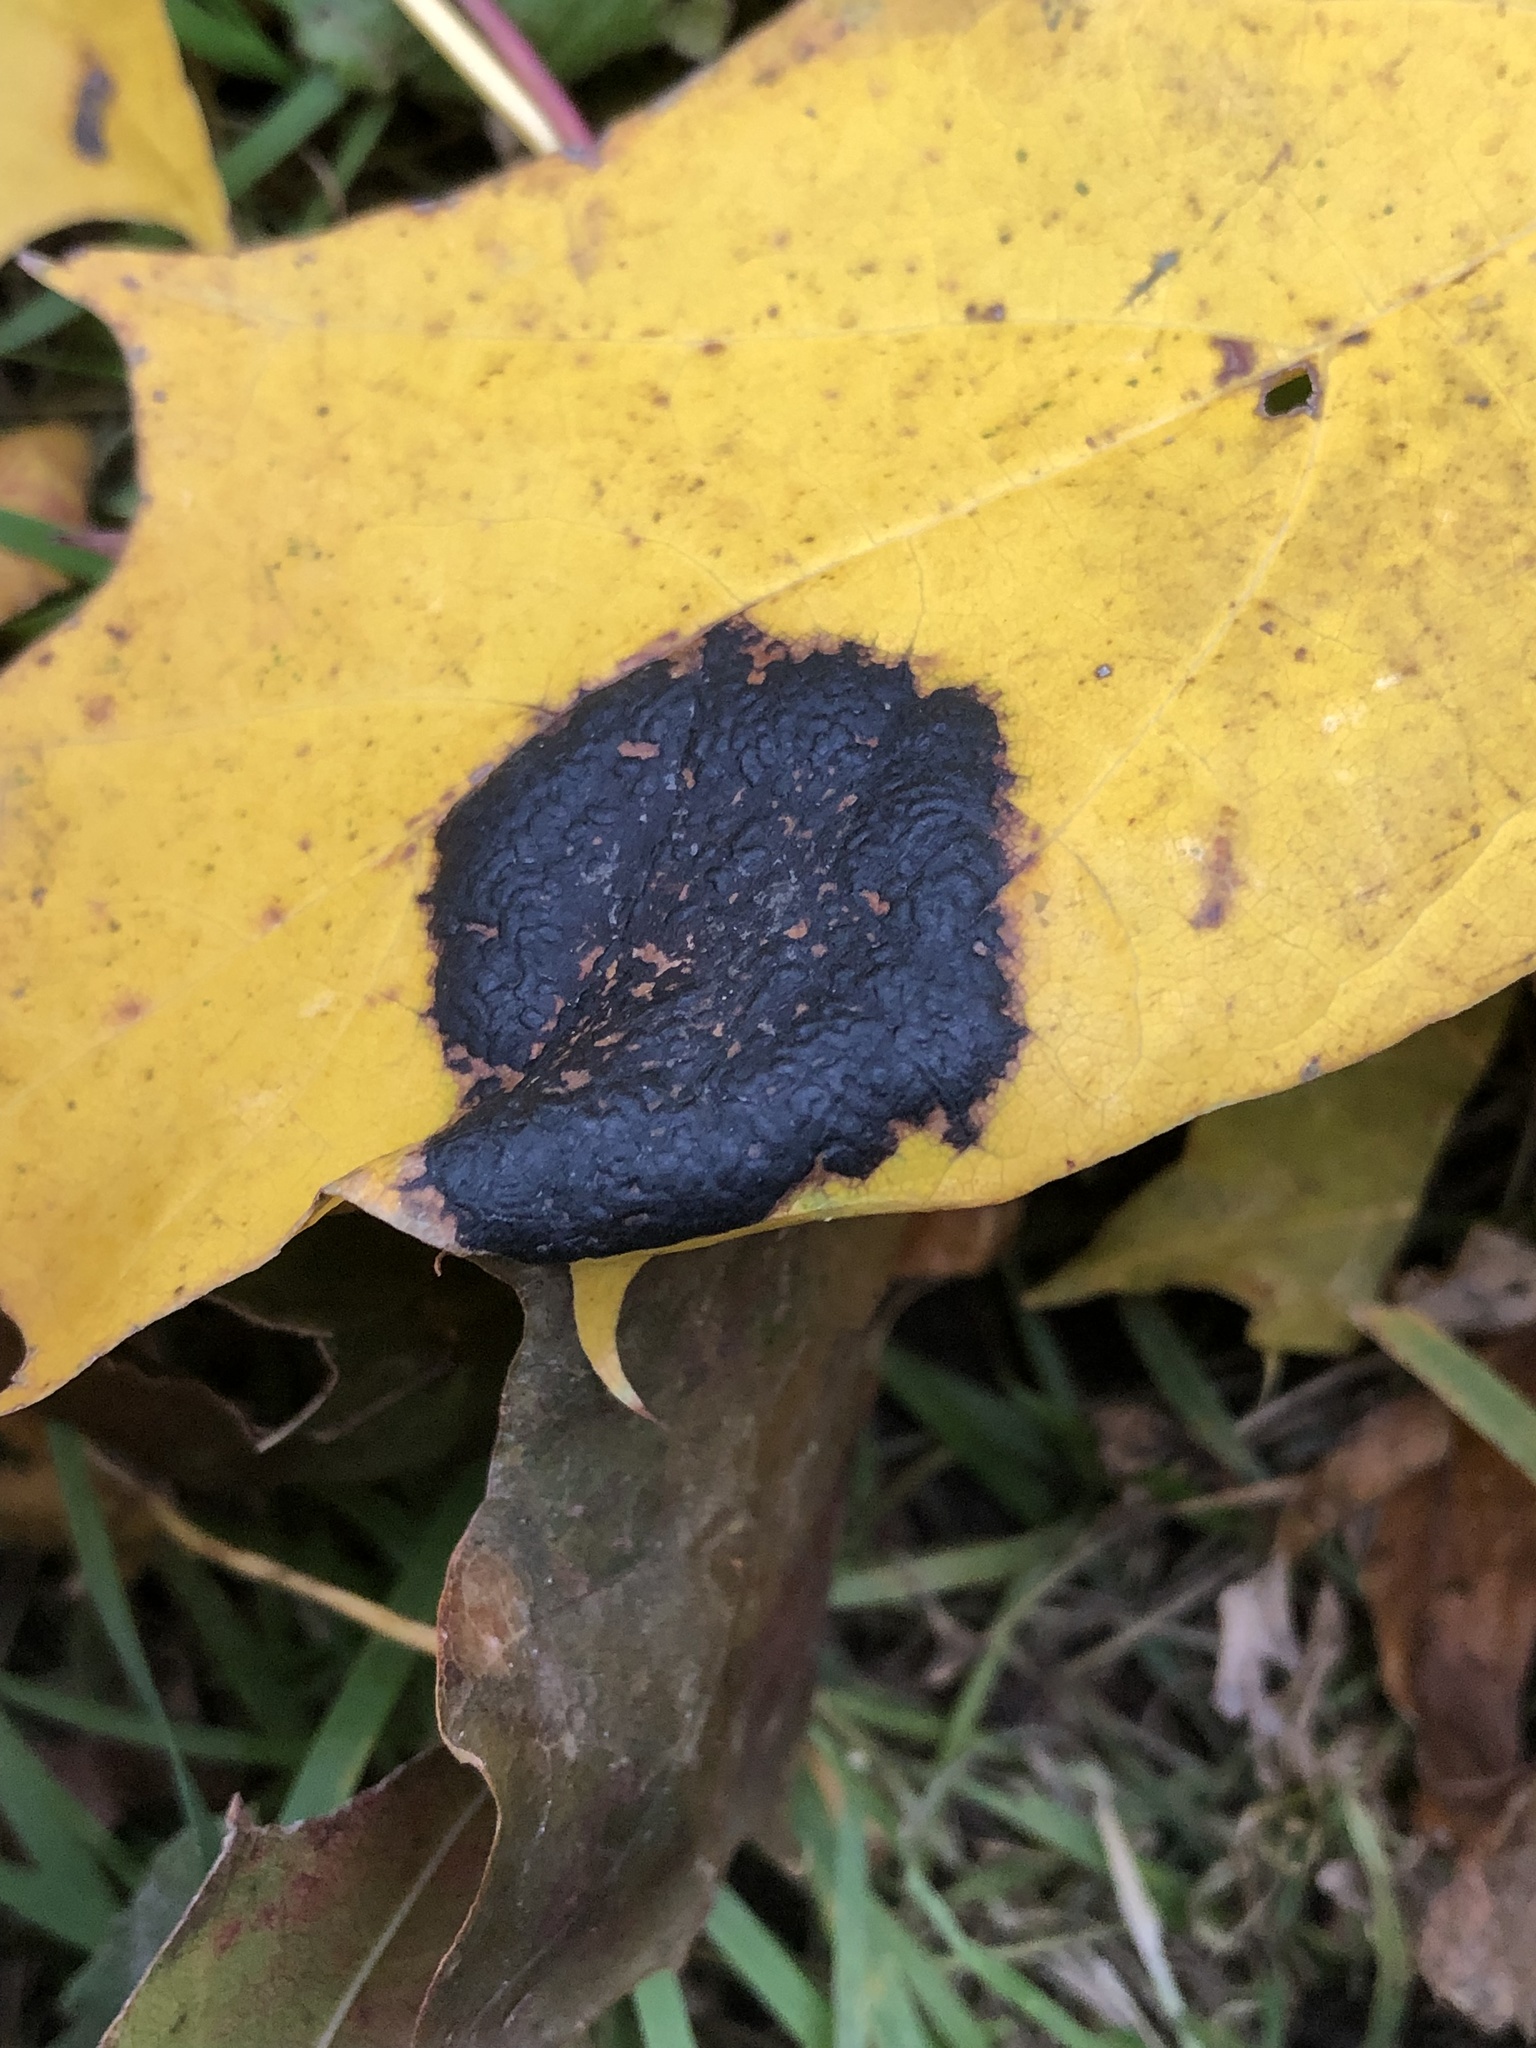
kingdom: Fungi
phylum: Ascomycota
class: Leotiomycetes
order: Rhytismatales
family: Rhytismataceae
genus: Rhytisma
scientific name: Rhytisma acerinum
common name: European tar spot
